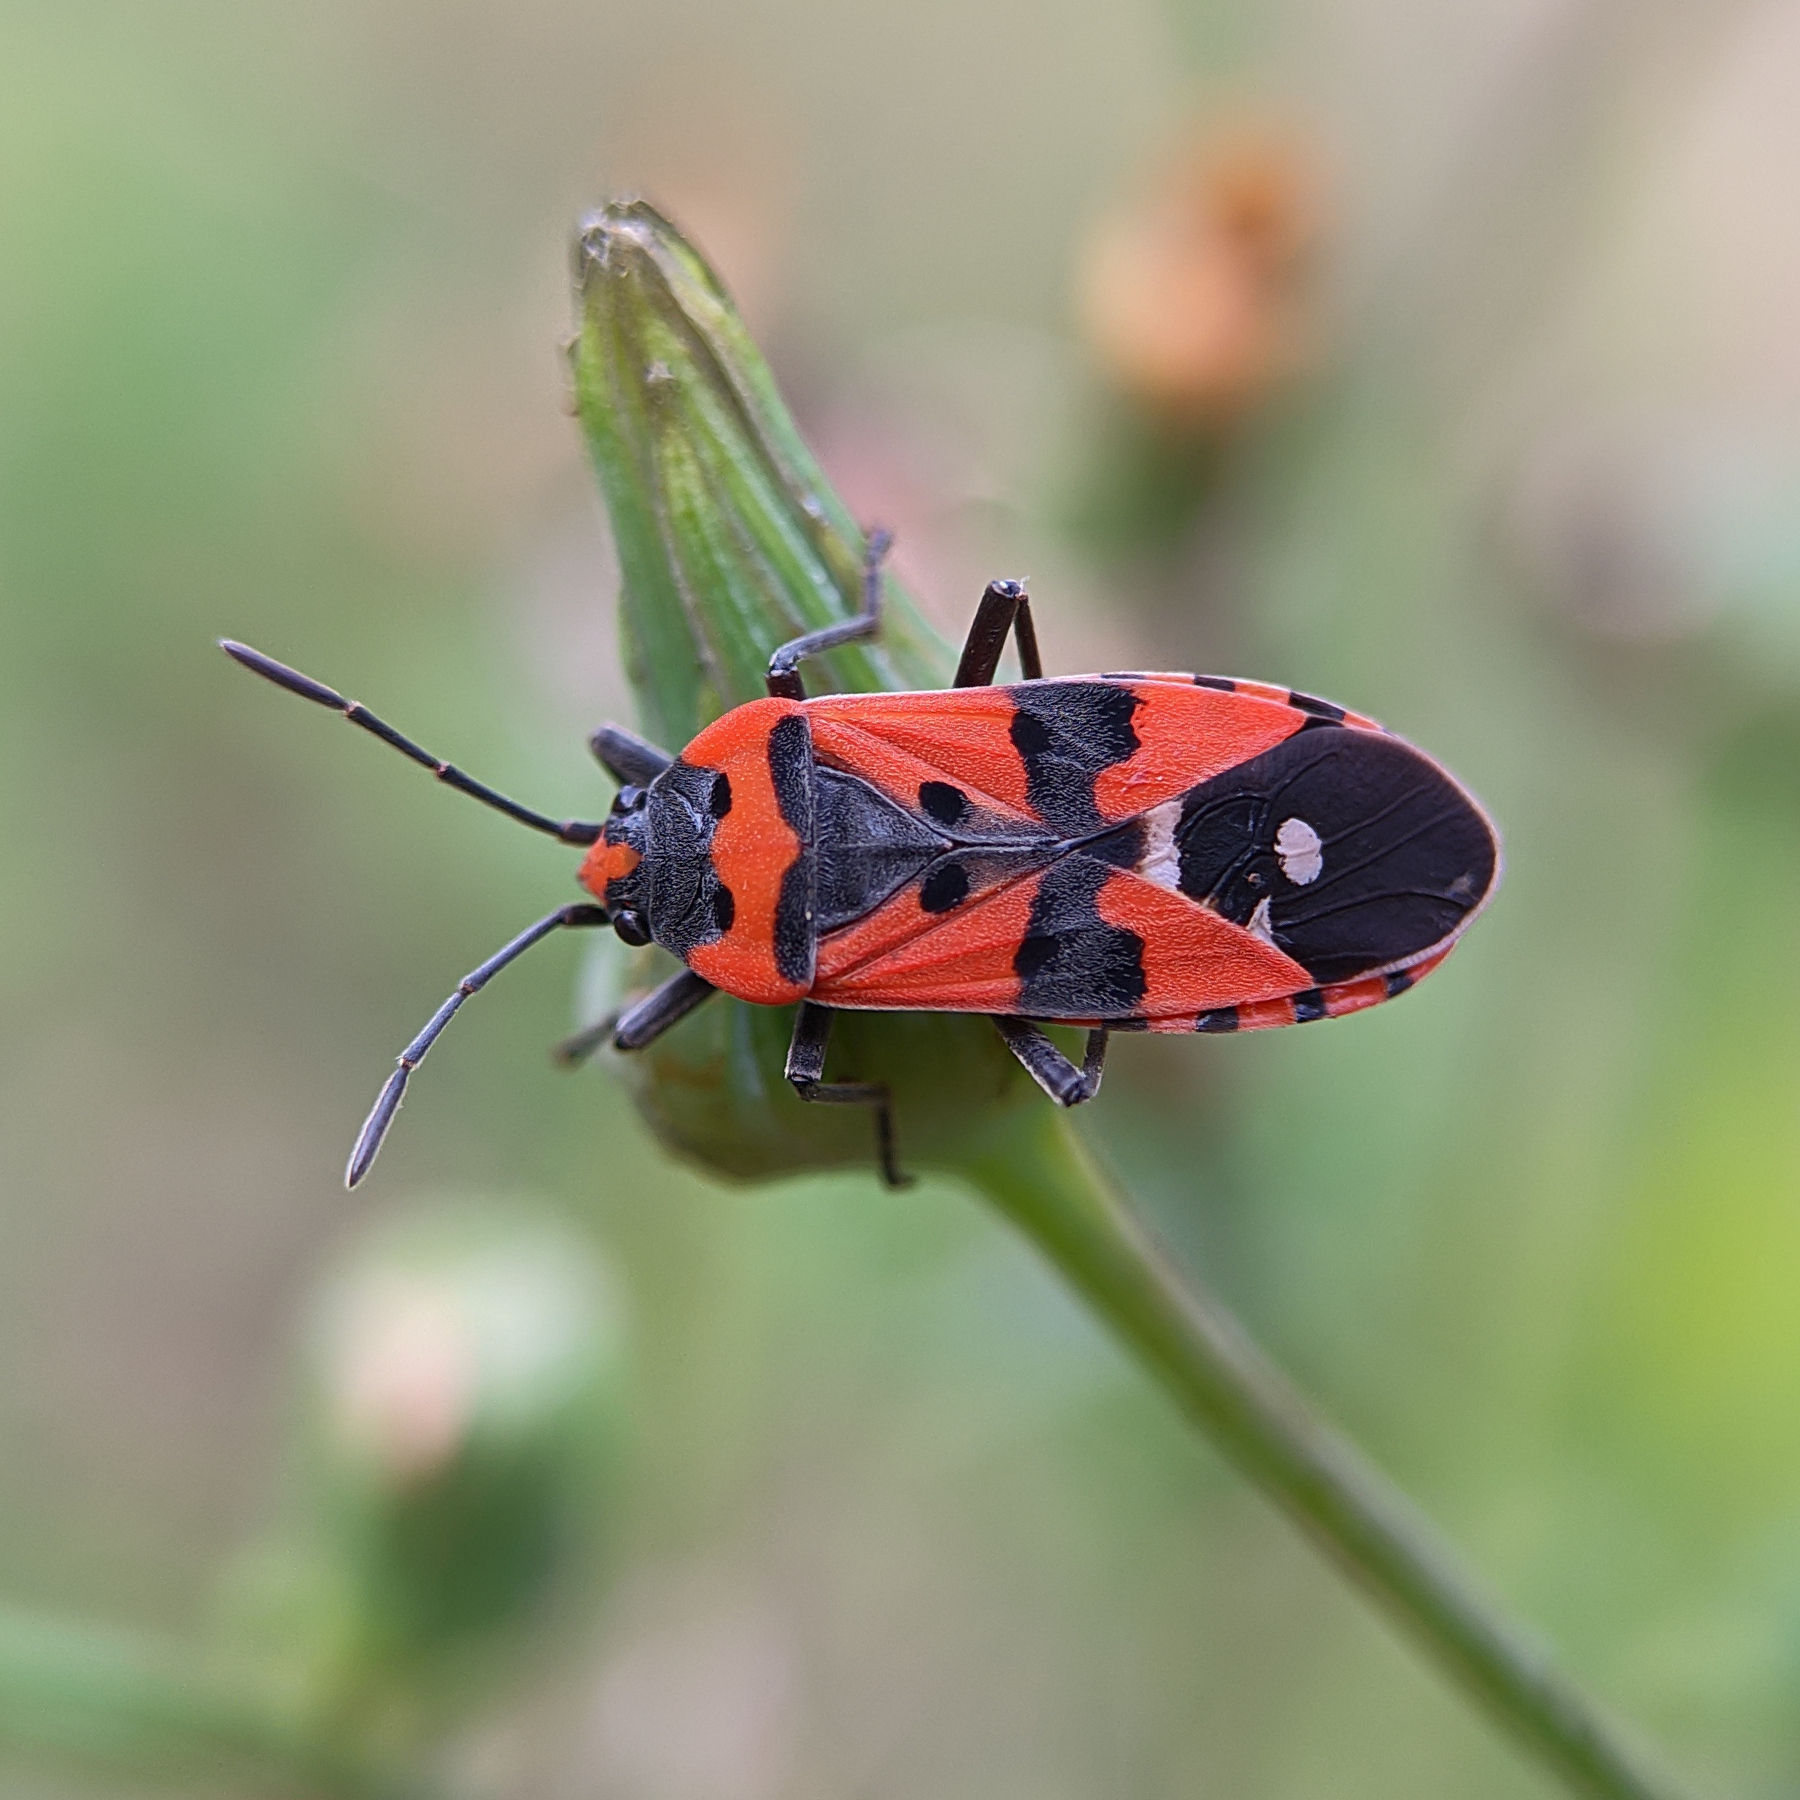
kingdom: Animalia
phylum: Arthropoda
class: Insecta
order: Hemiptera
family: Lygaeidae
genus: Lygaeus
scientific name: Lygaeus equestris
